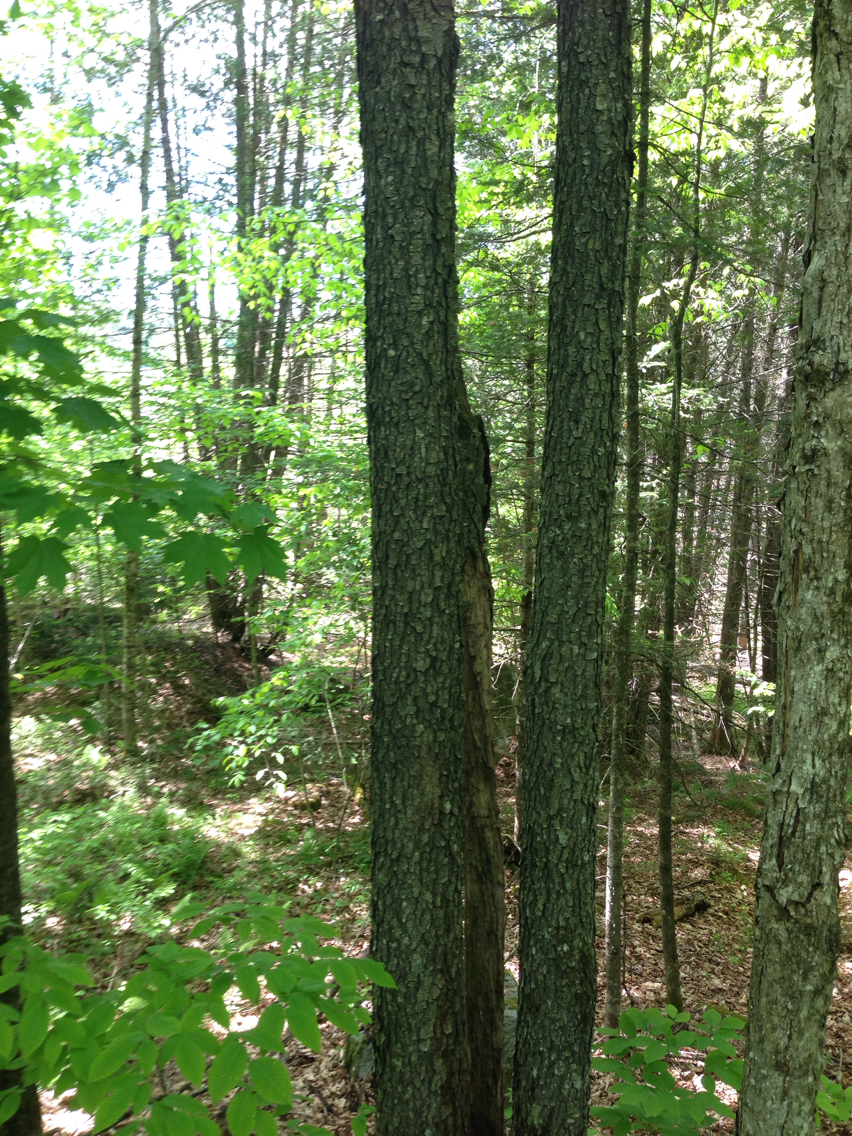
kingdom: Plantae
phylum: Tracheophyta
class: Magnoliopsida
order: Rosales
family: Rosaceae
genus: Prunus
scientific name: Prunus serotina
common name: Black cherry
